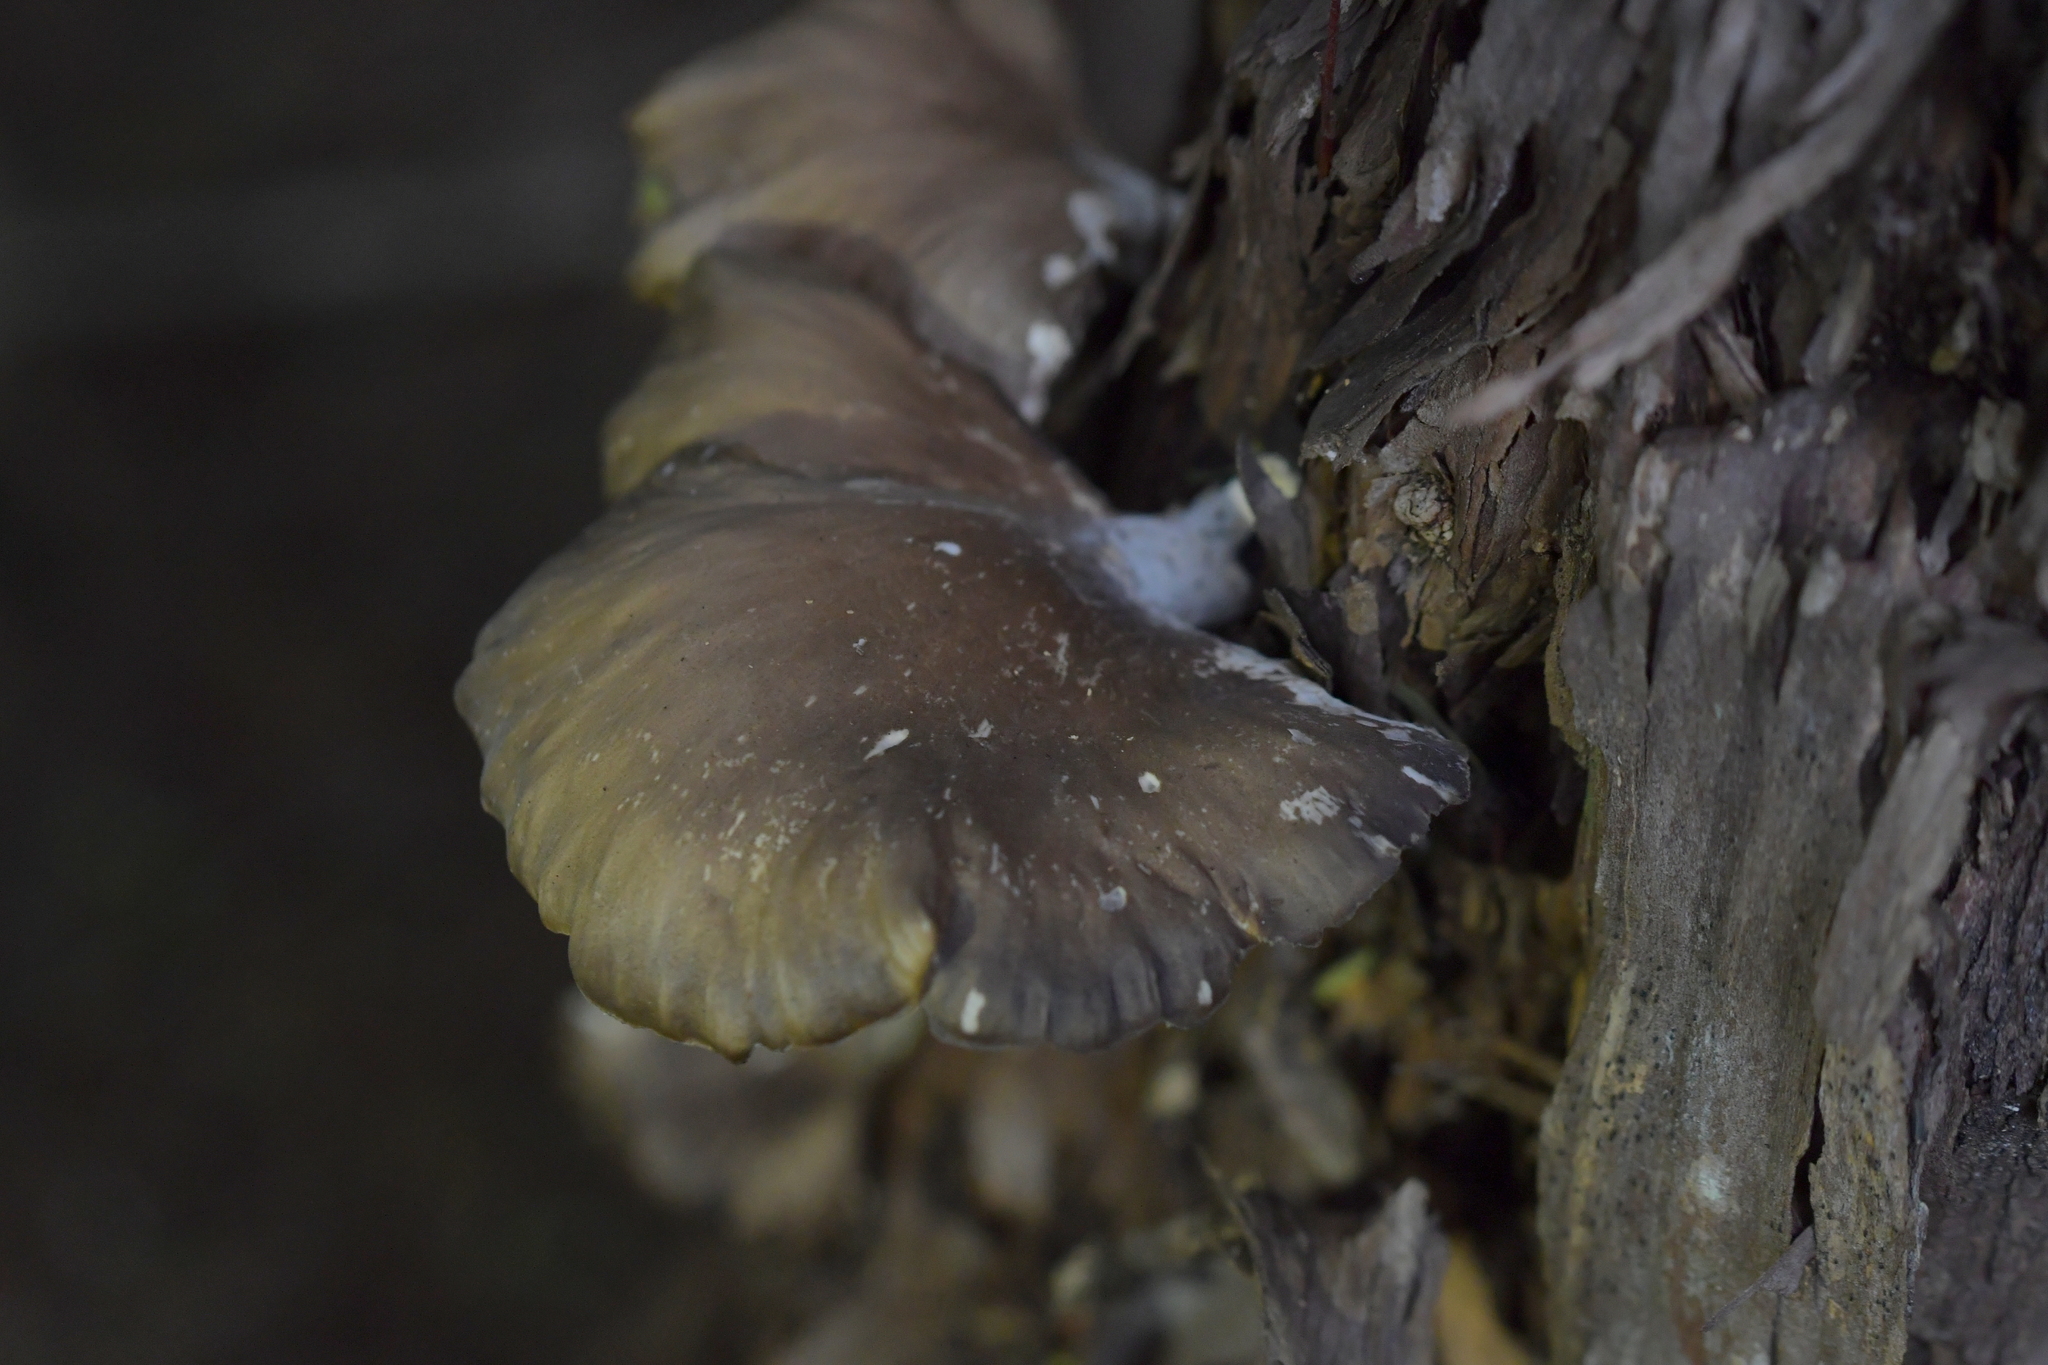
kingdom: Fungi
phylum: Basidiomycota
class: Agaricomycetes
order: Agaricales
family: Pleurotaceae
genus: Pleurotus
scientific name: Pleurotus purpureo-olivaceus
